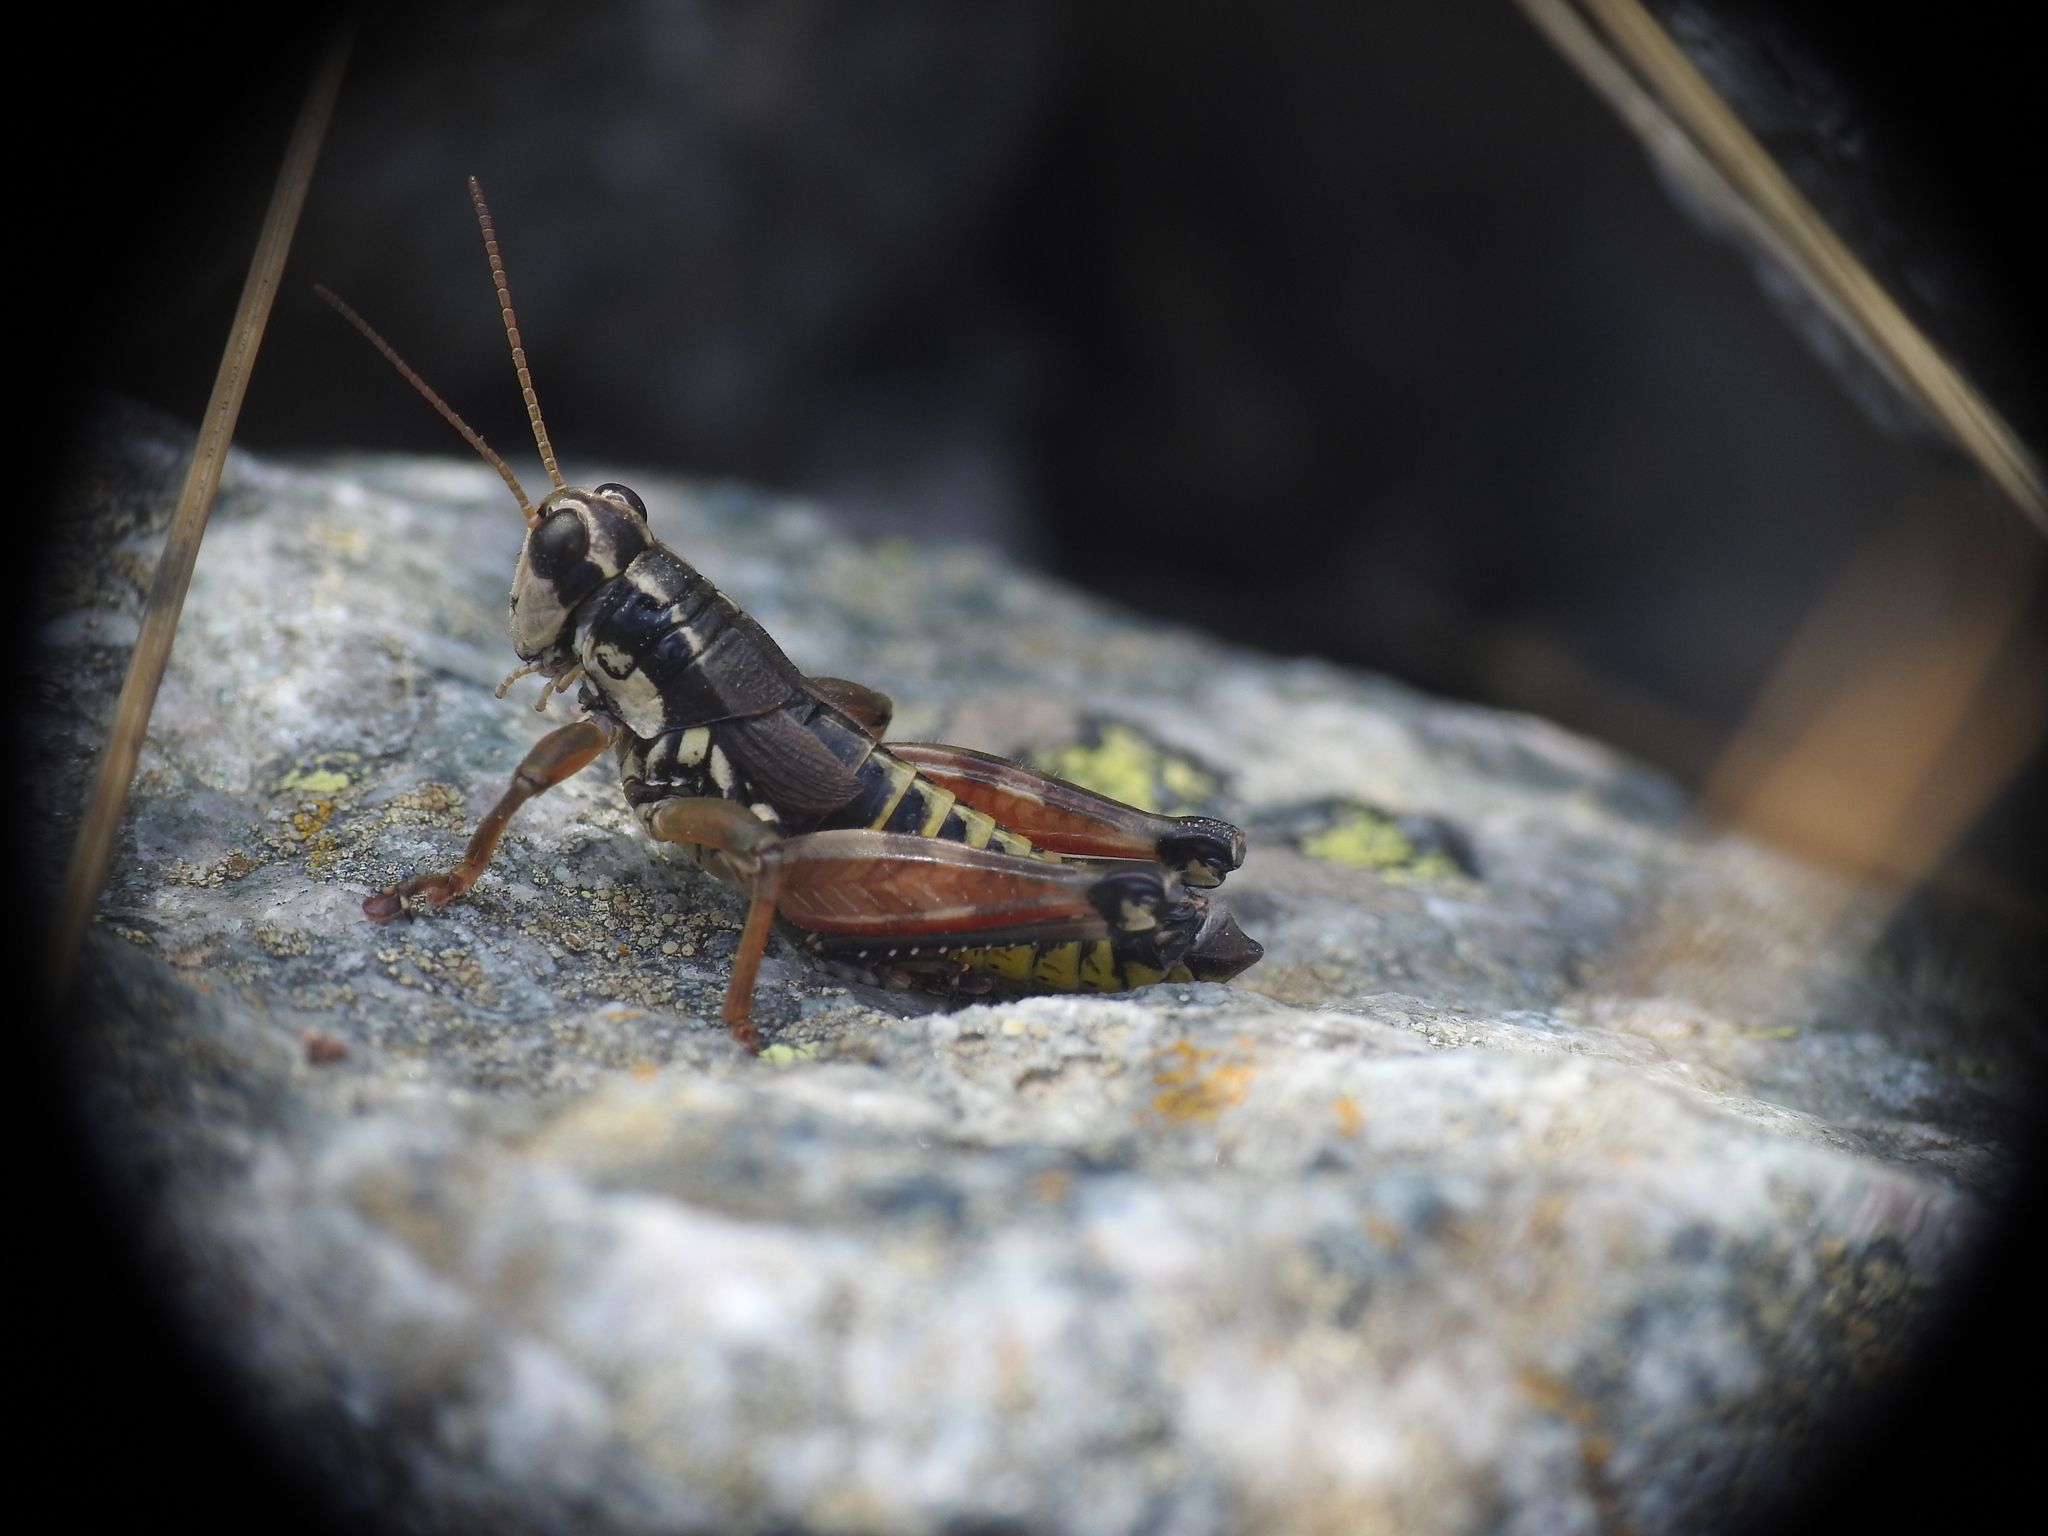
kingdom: Animalia
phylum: Arthropoda
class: Insecta
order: Orthoptera
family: Acrididae
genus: Podisma
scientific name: Podisma pedestris
